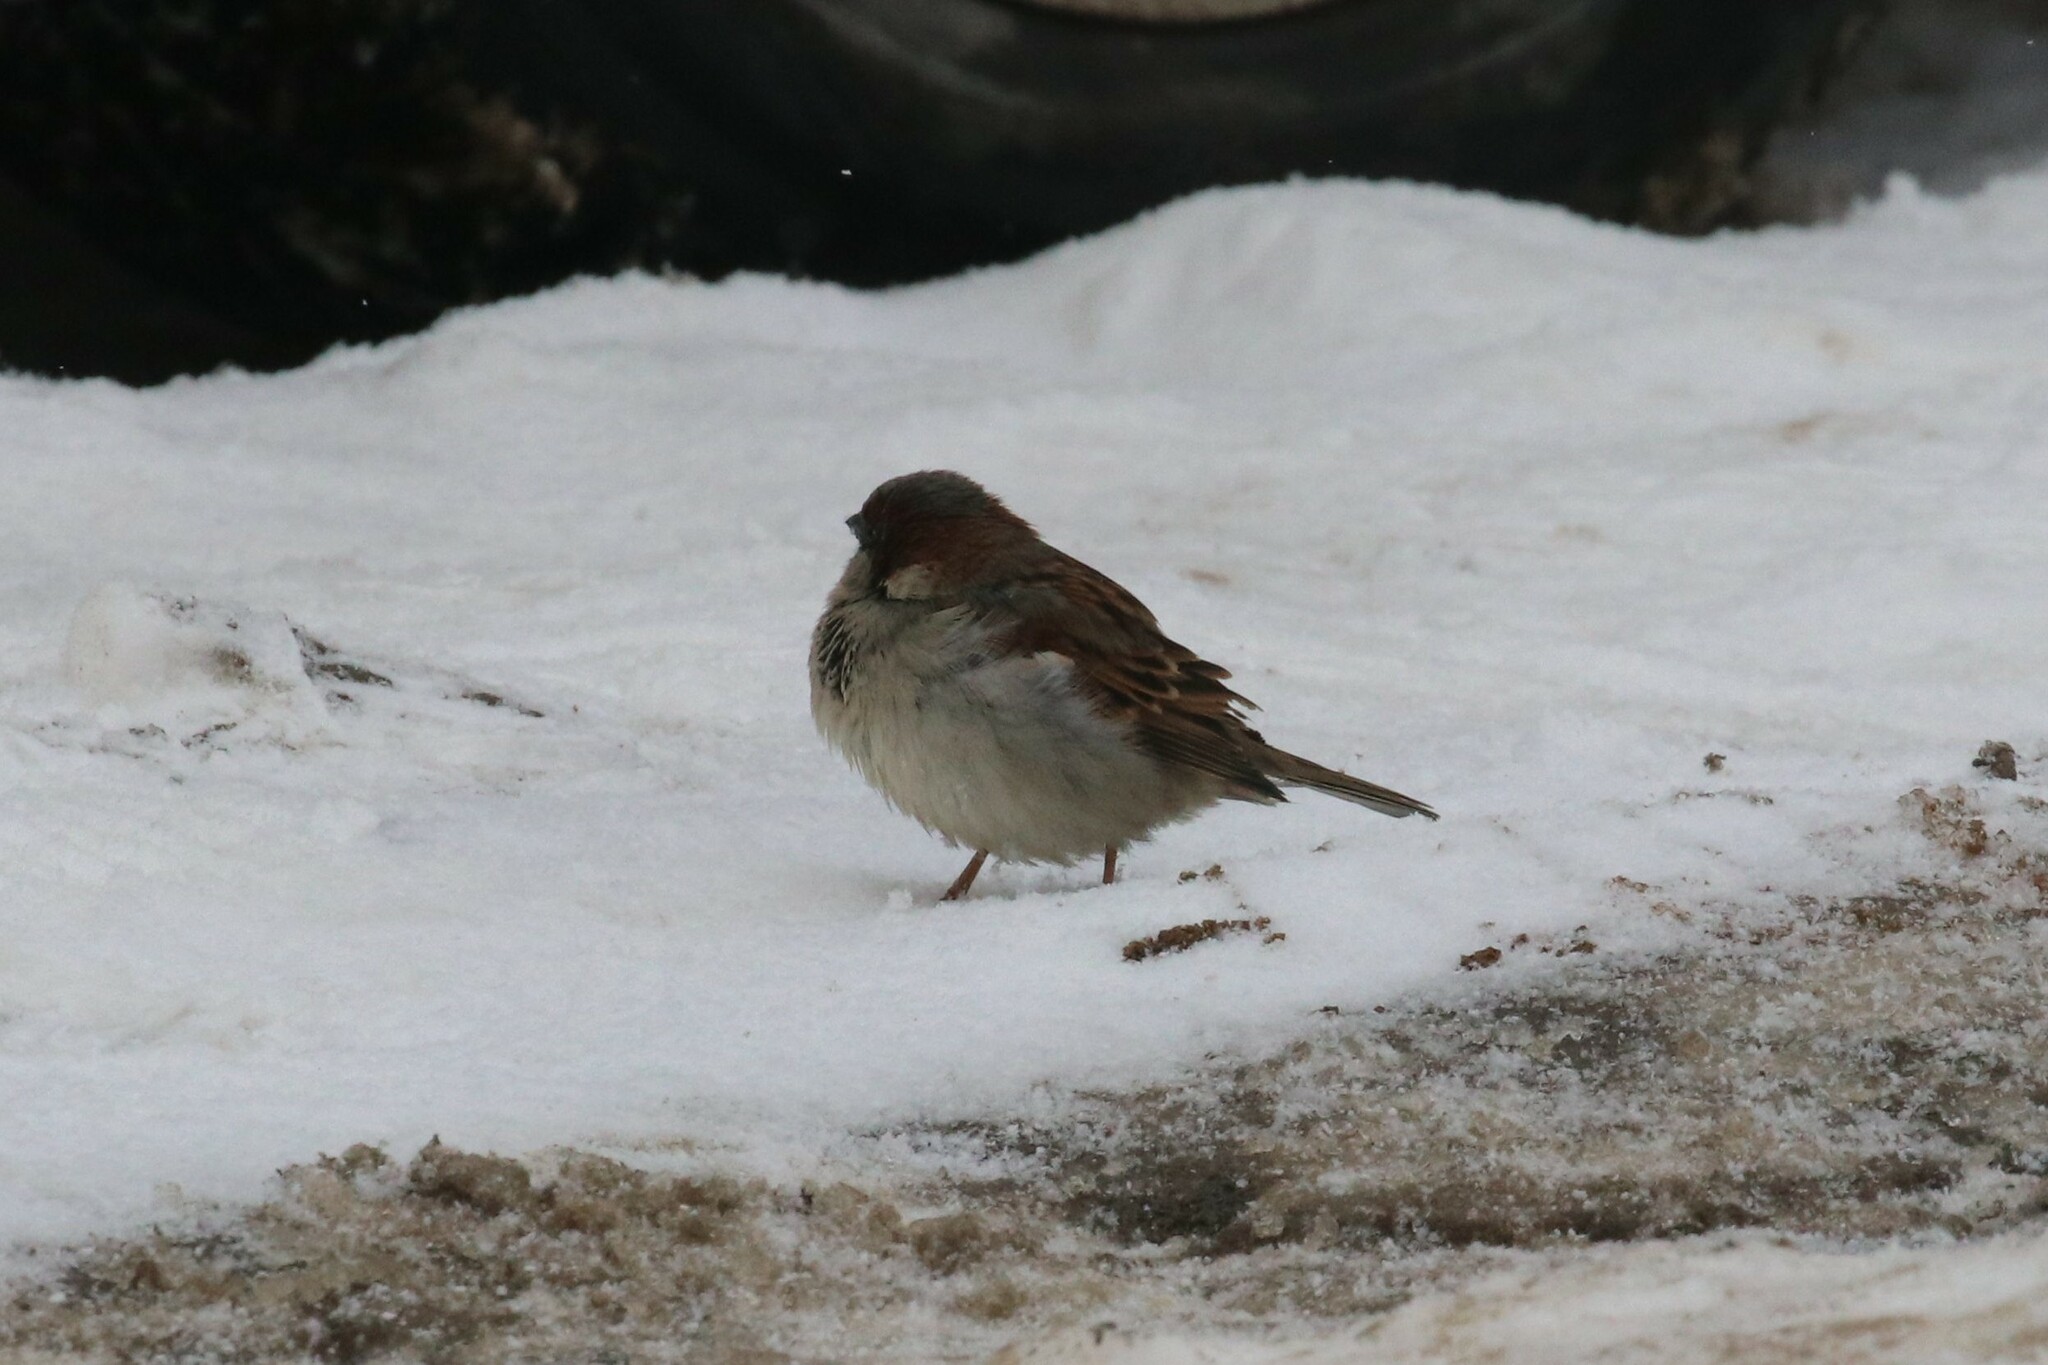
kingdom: Animalia
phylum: Chordata
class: Aves
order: Passeriformes
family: Passeridae
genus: Passer
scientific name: Passer domesticus
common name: House sparrow
